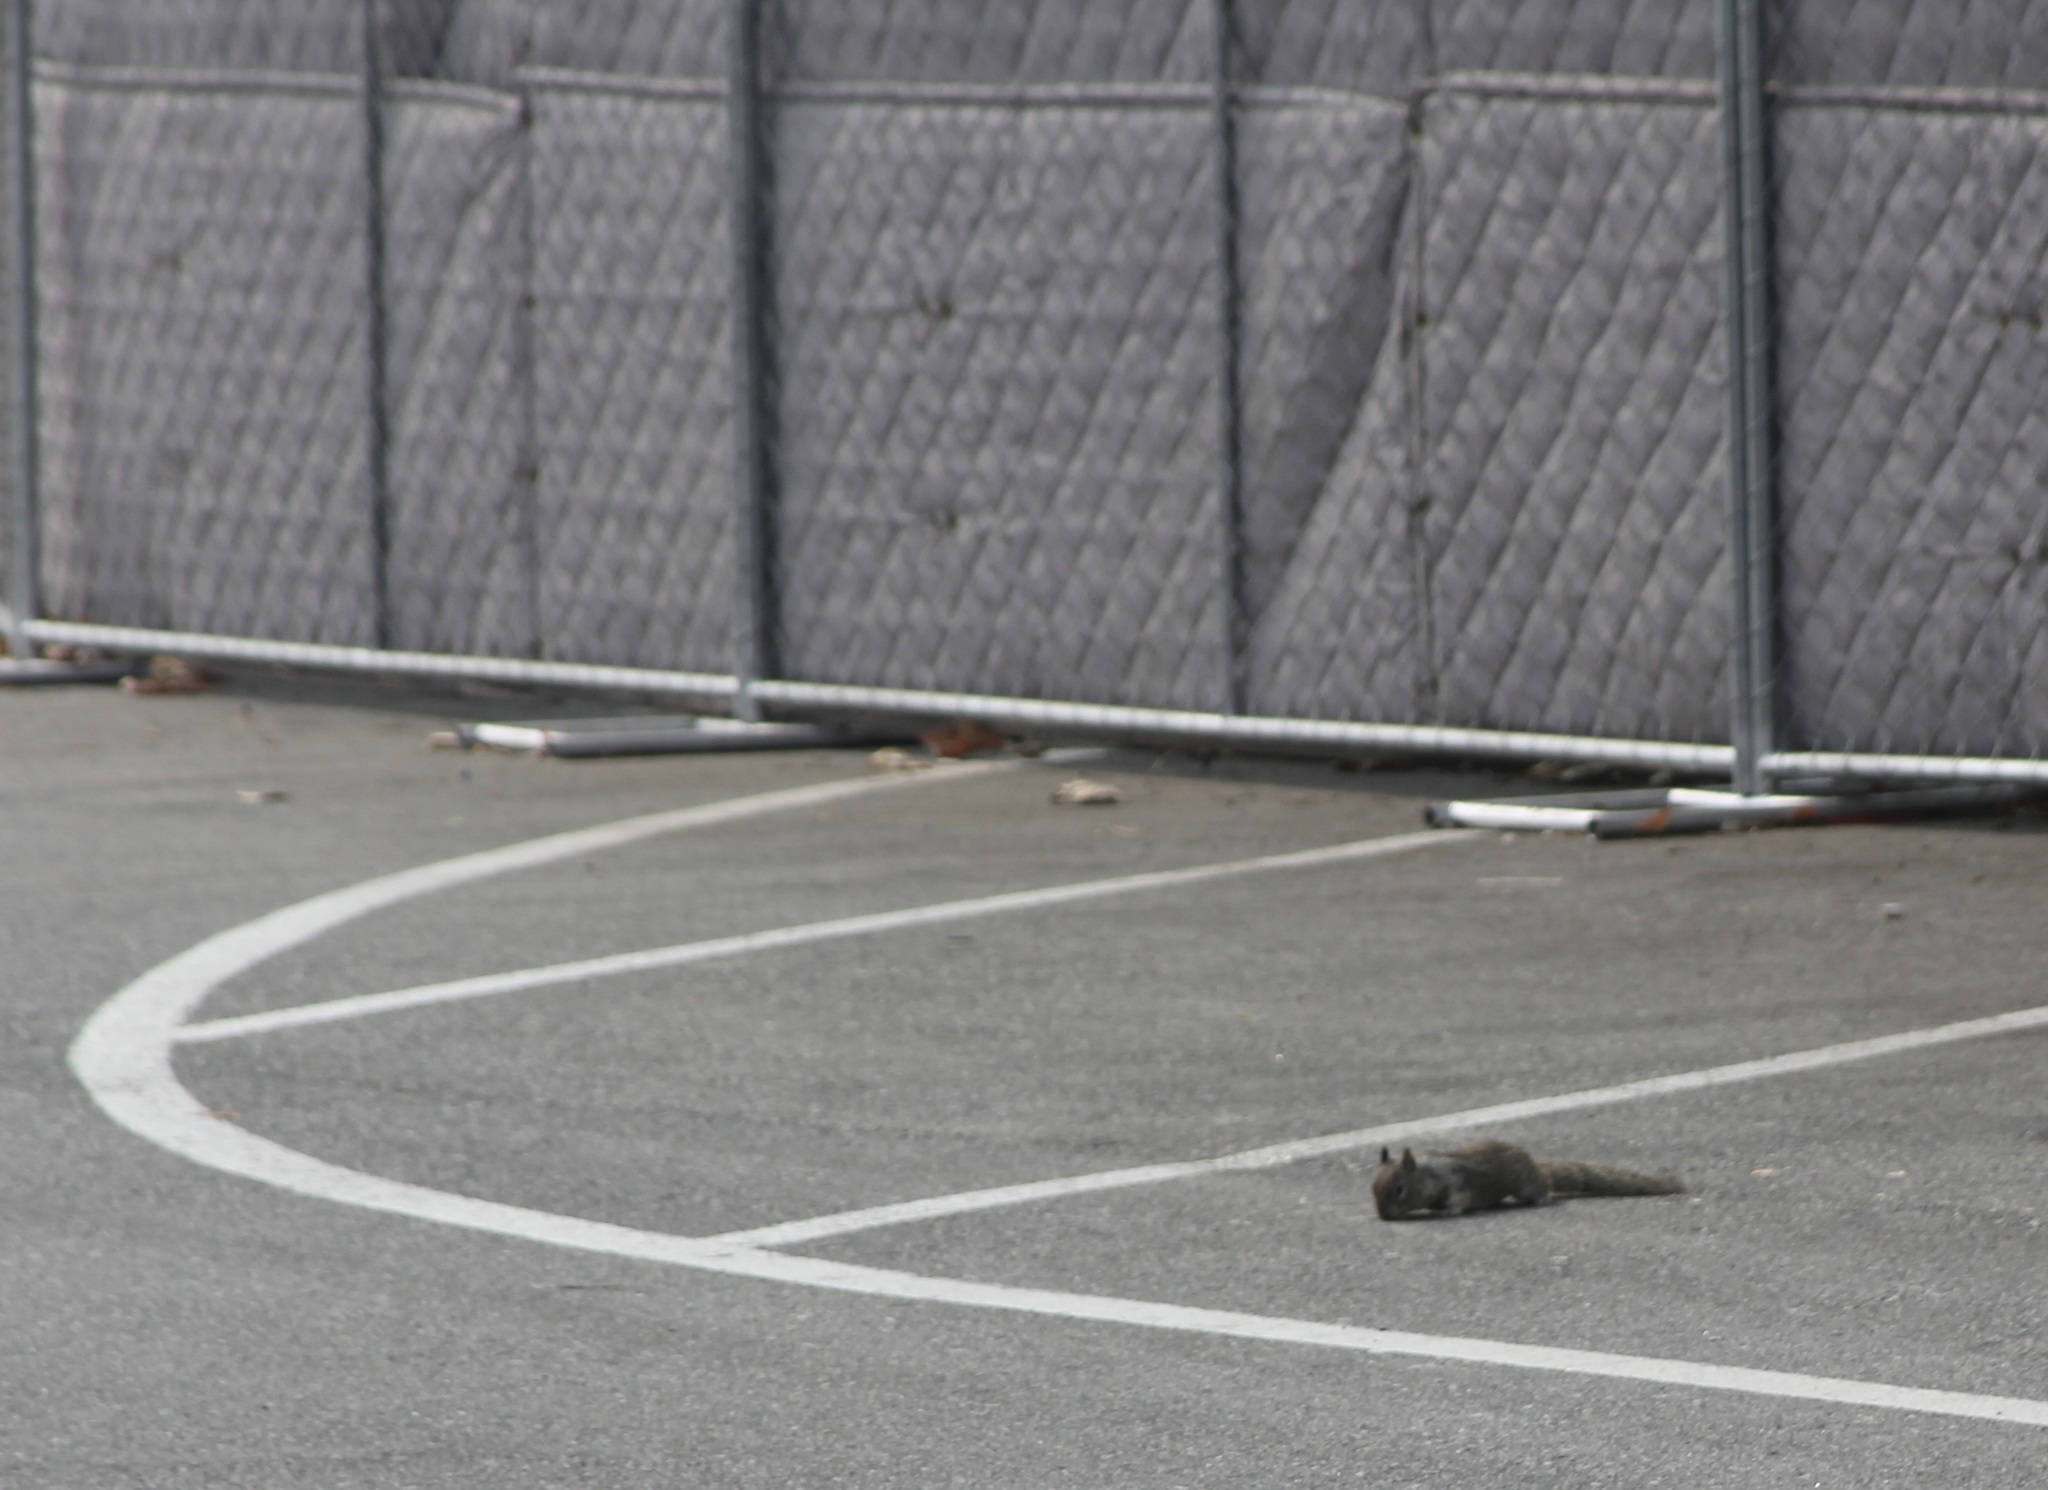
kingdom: Animalia
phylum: Chordata
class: Mammalia
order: Rodentia
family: Sciuridae
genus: Otospermophilus
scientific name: Otospermophilus beecheyi
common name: California ground squirrel
